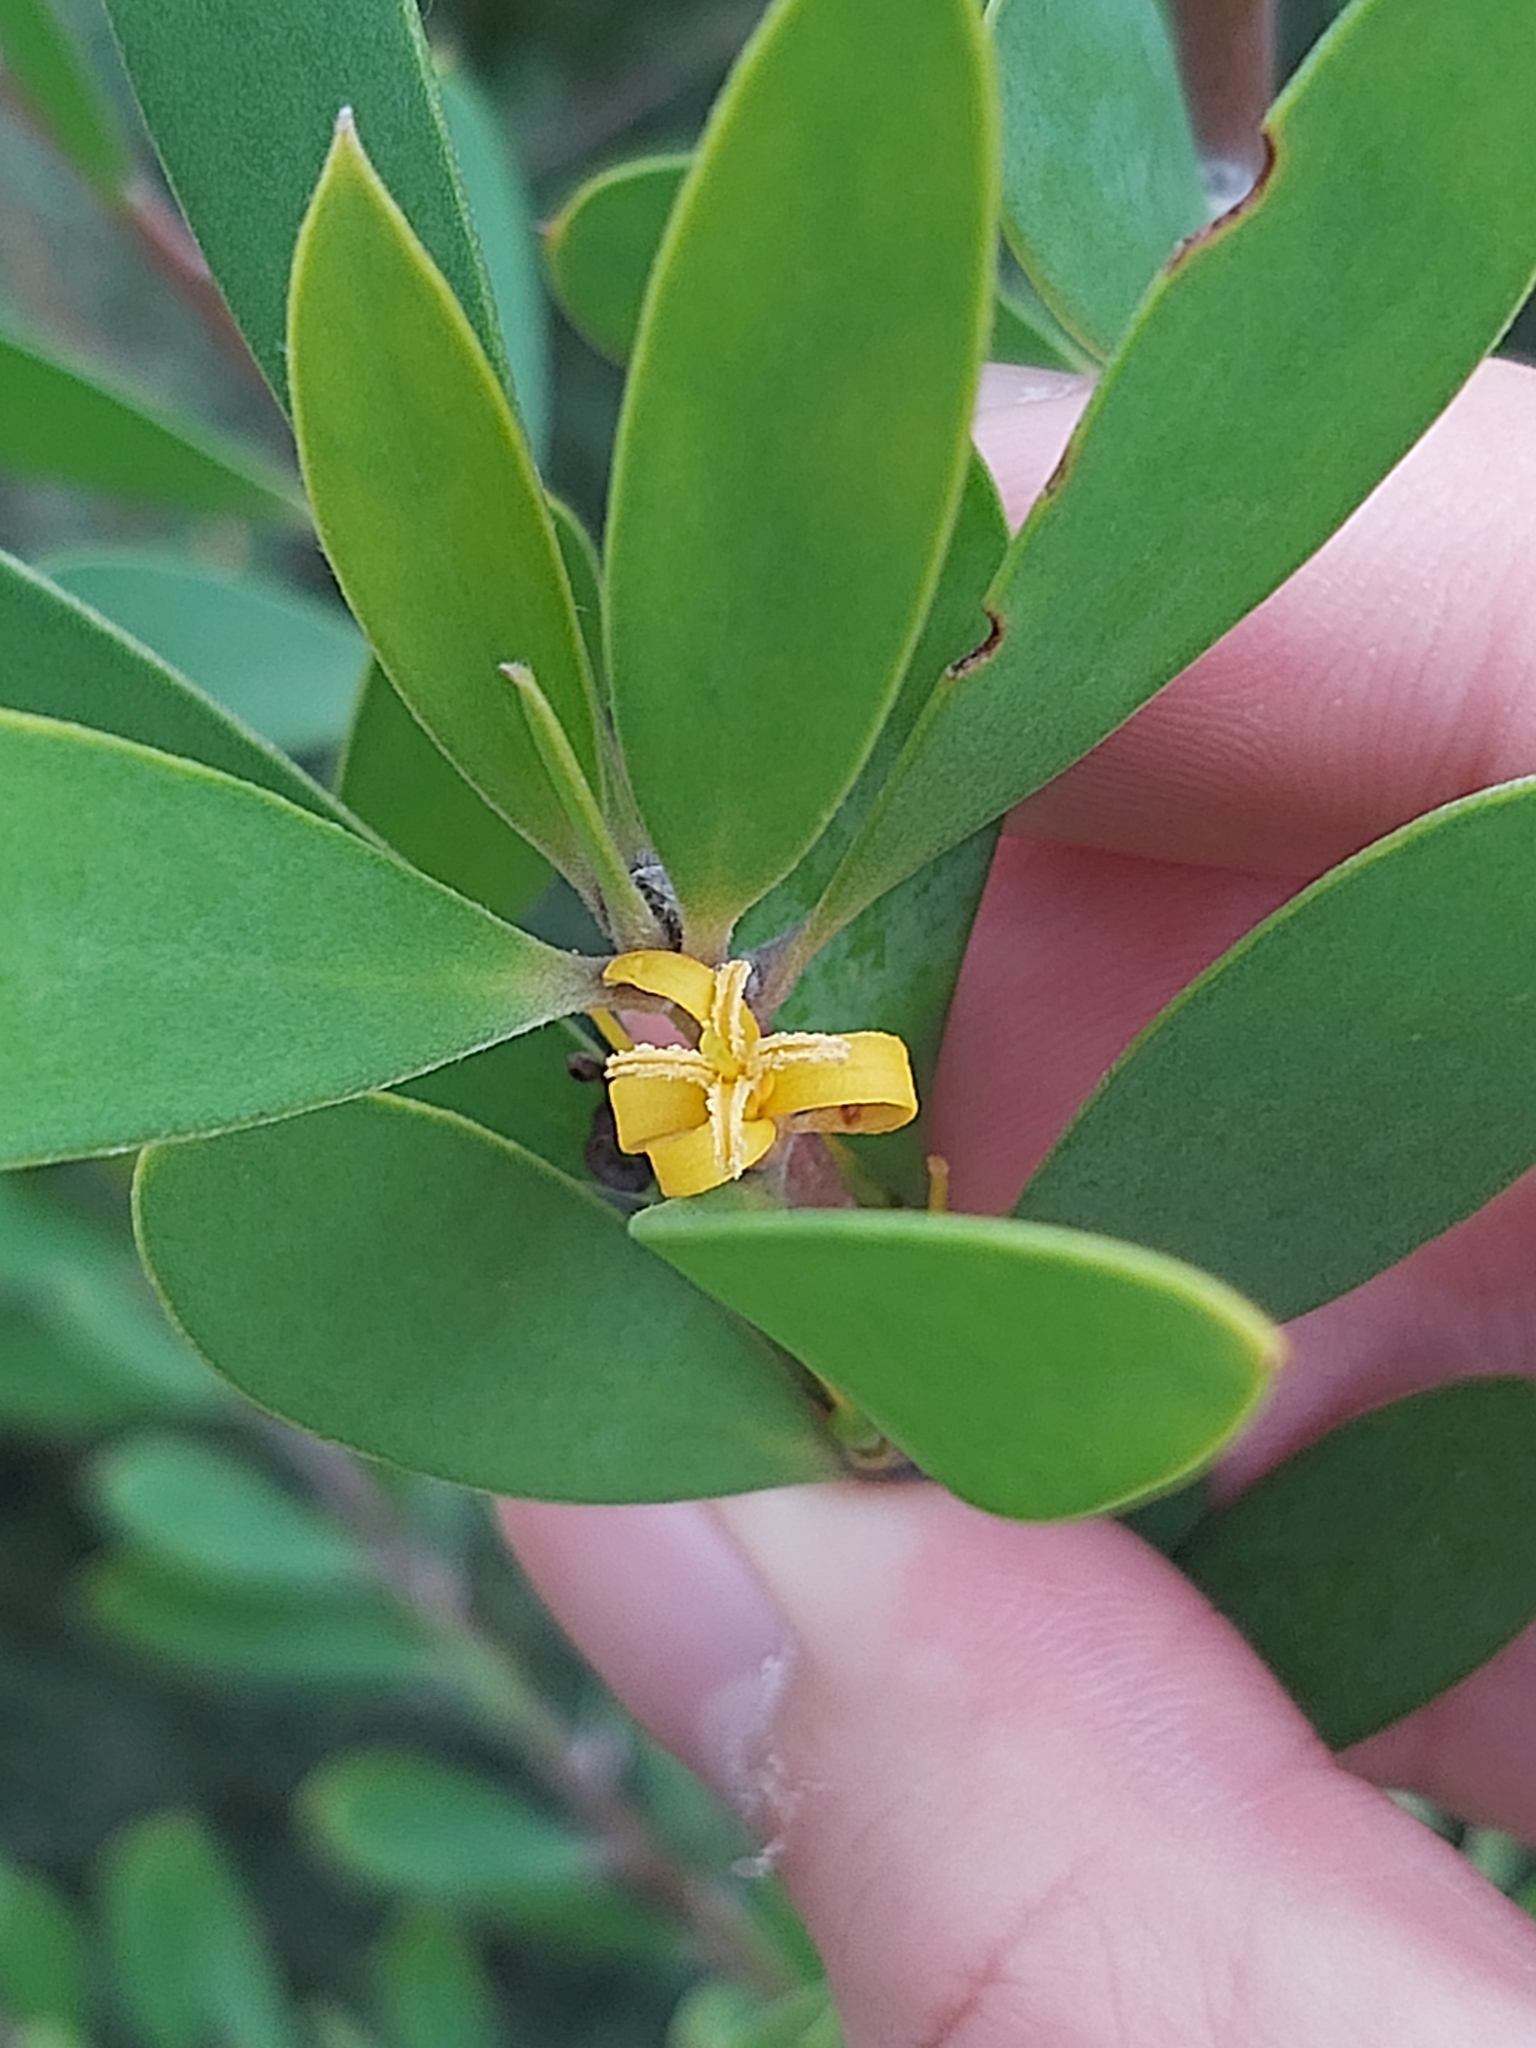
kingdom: Plantae
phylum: Tracheophyta
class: Magnoliopsida
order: Proteales
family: Proteaceae
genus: Persoonia
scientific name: Persoonia lanceolata
